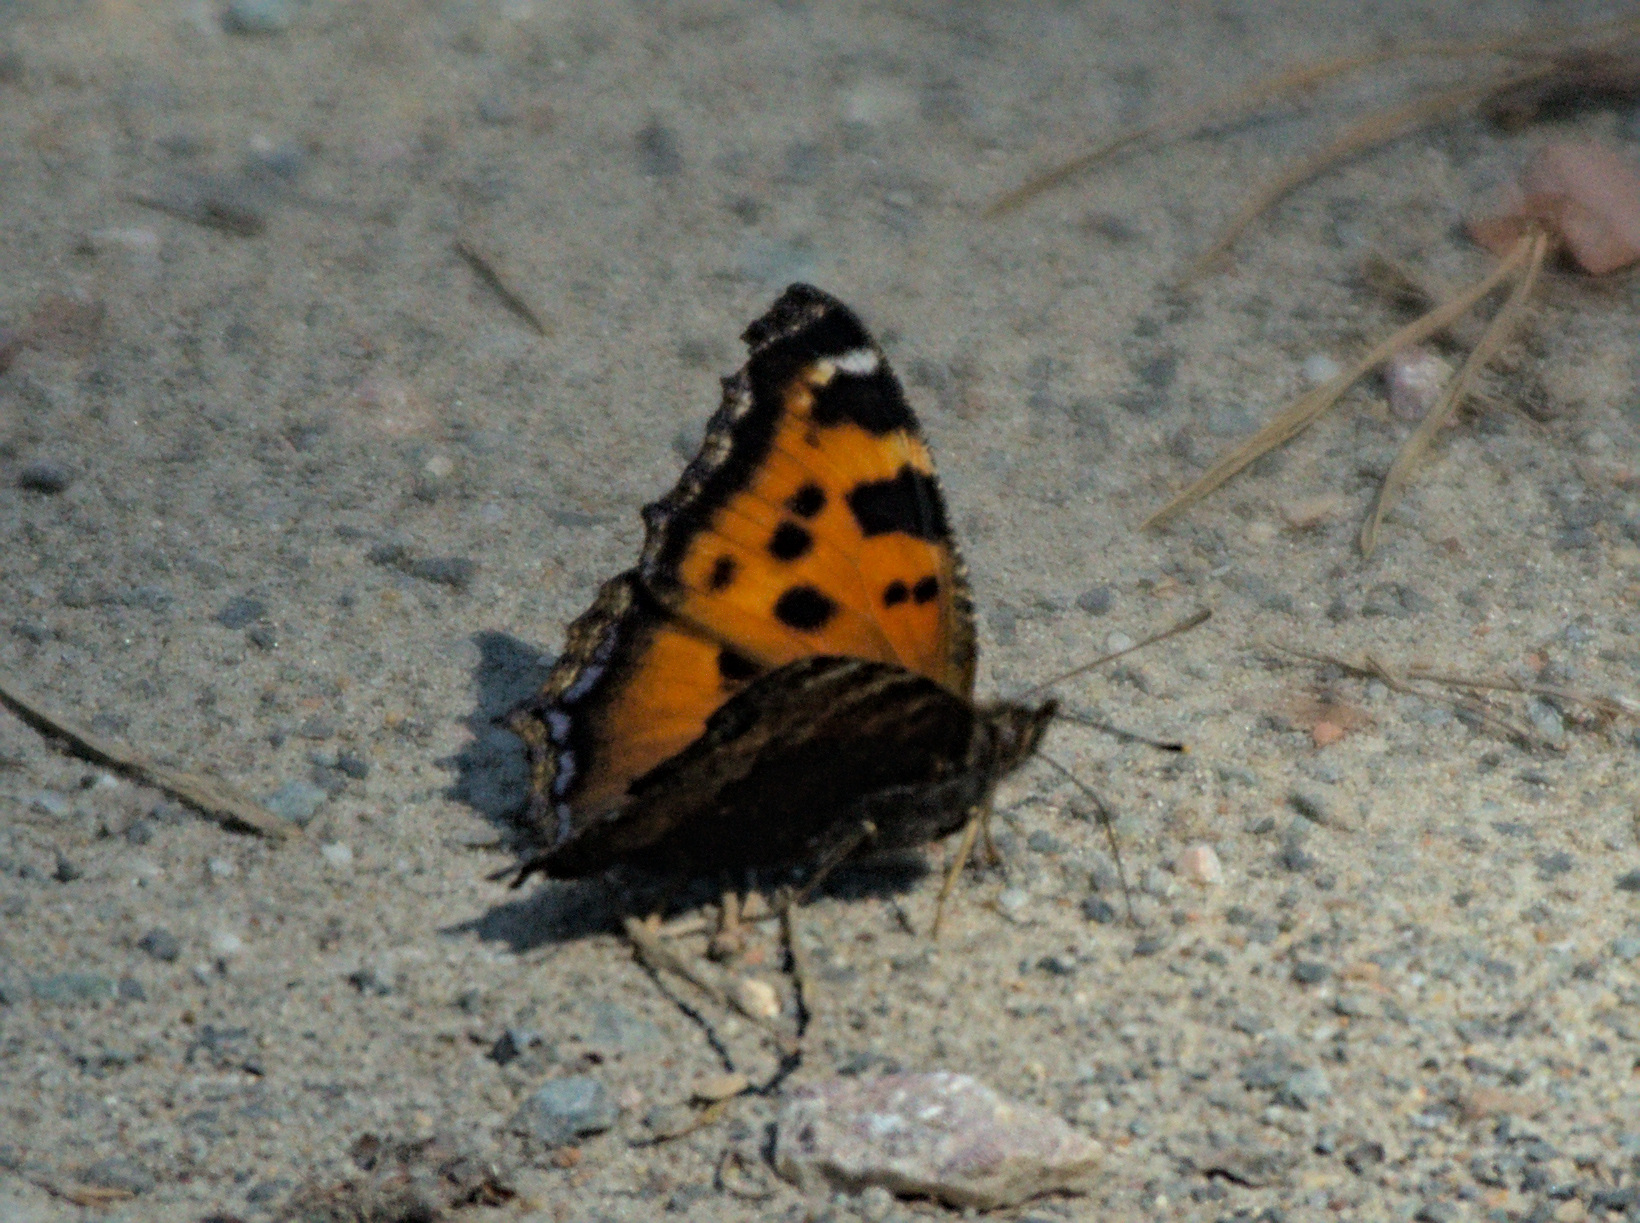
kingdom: Animalia
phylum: Arthropoda
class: Insecta
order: Lepidoptera
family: Nymphalidae
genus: Nymphalis
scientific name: Nymphalis xanthomelas
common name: Scarce tortoiseshell
